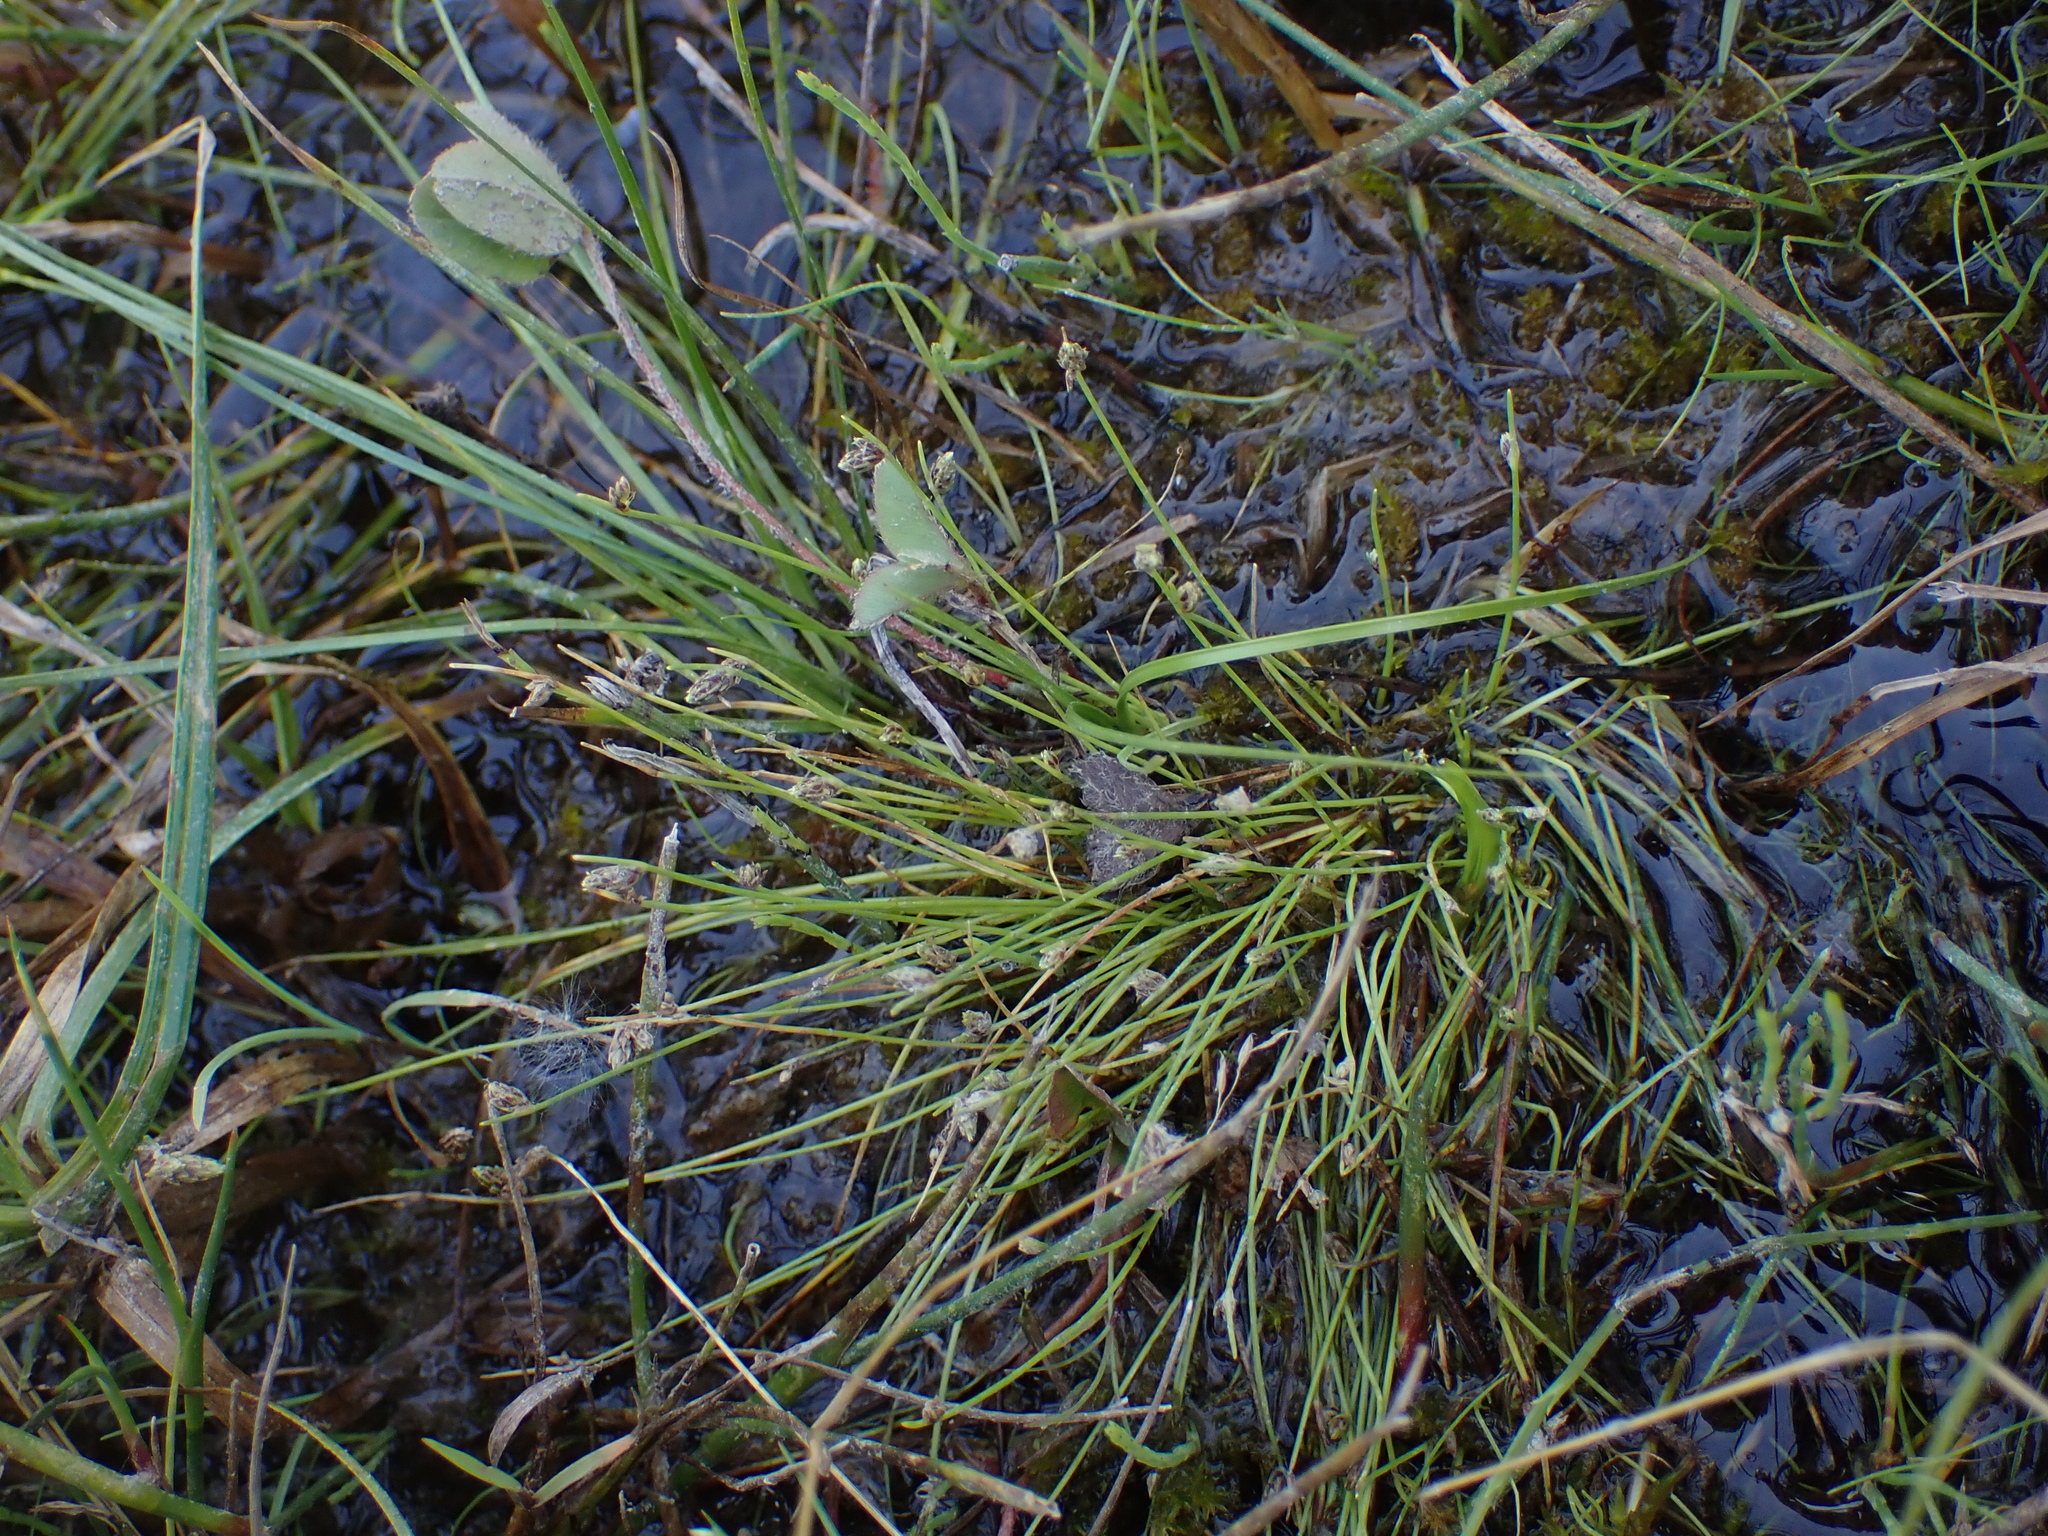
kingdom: Plantae
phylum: Tracheophyta
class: Liliopsida
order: Poales
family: Cyperaceae
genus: Isolepis
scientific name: Isolepis setacea
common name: Bristle club-rush
